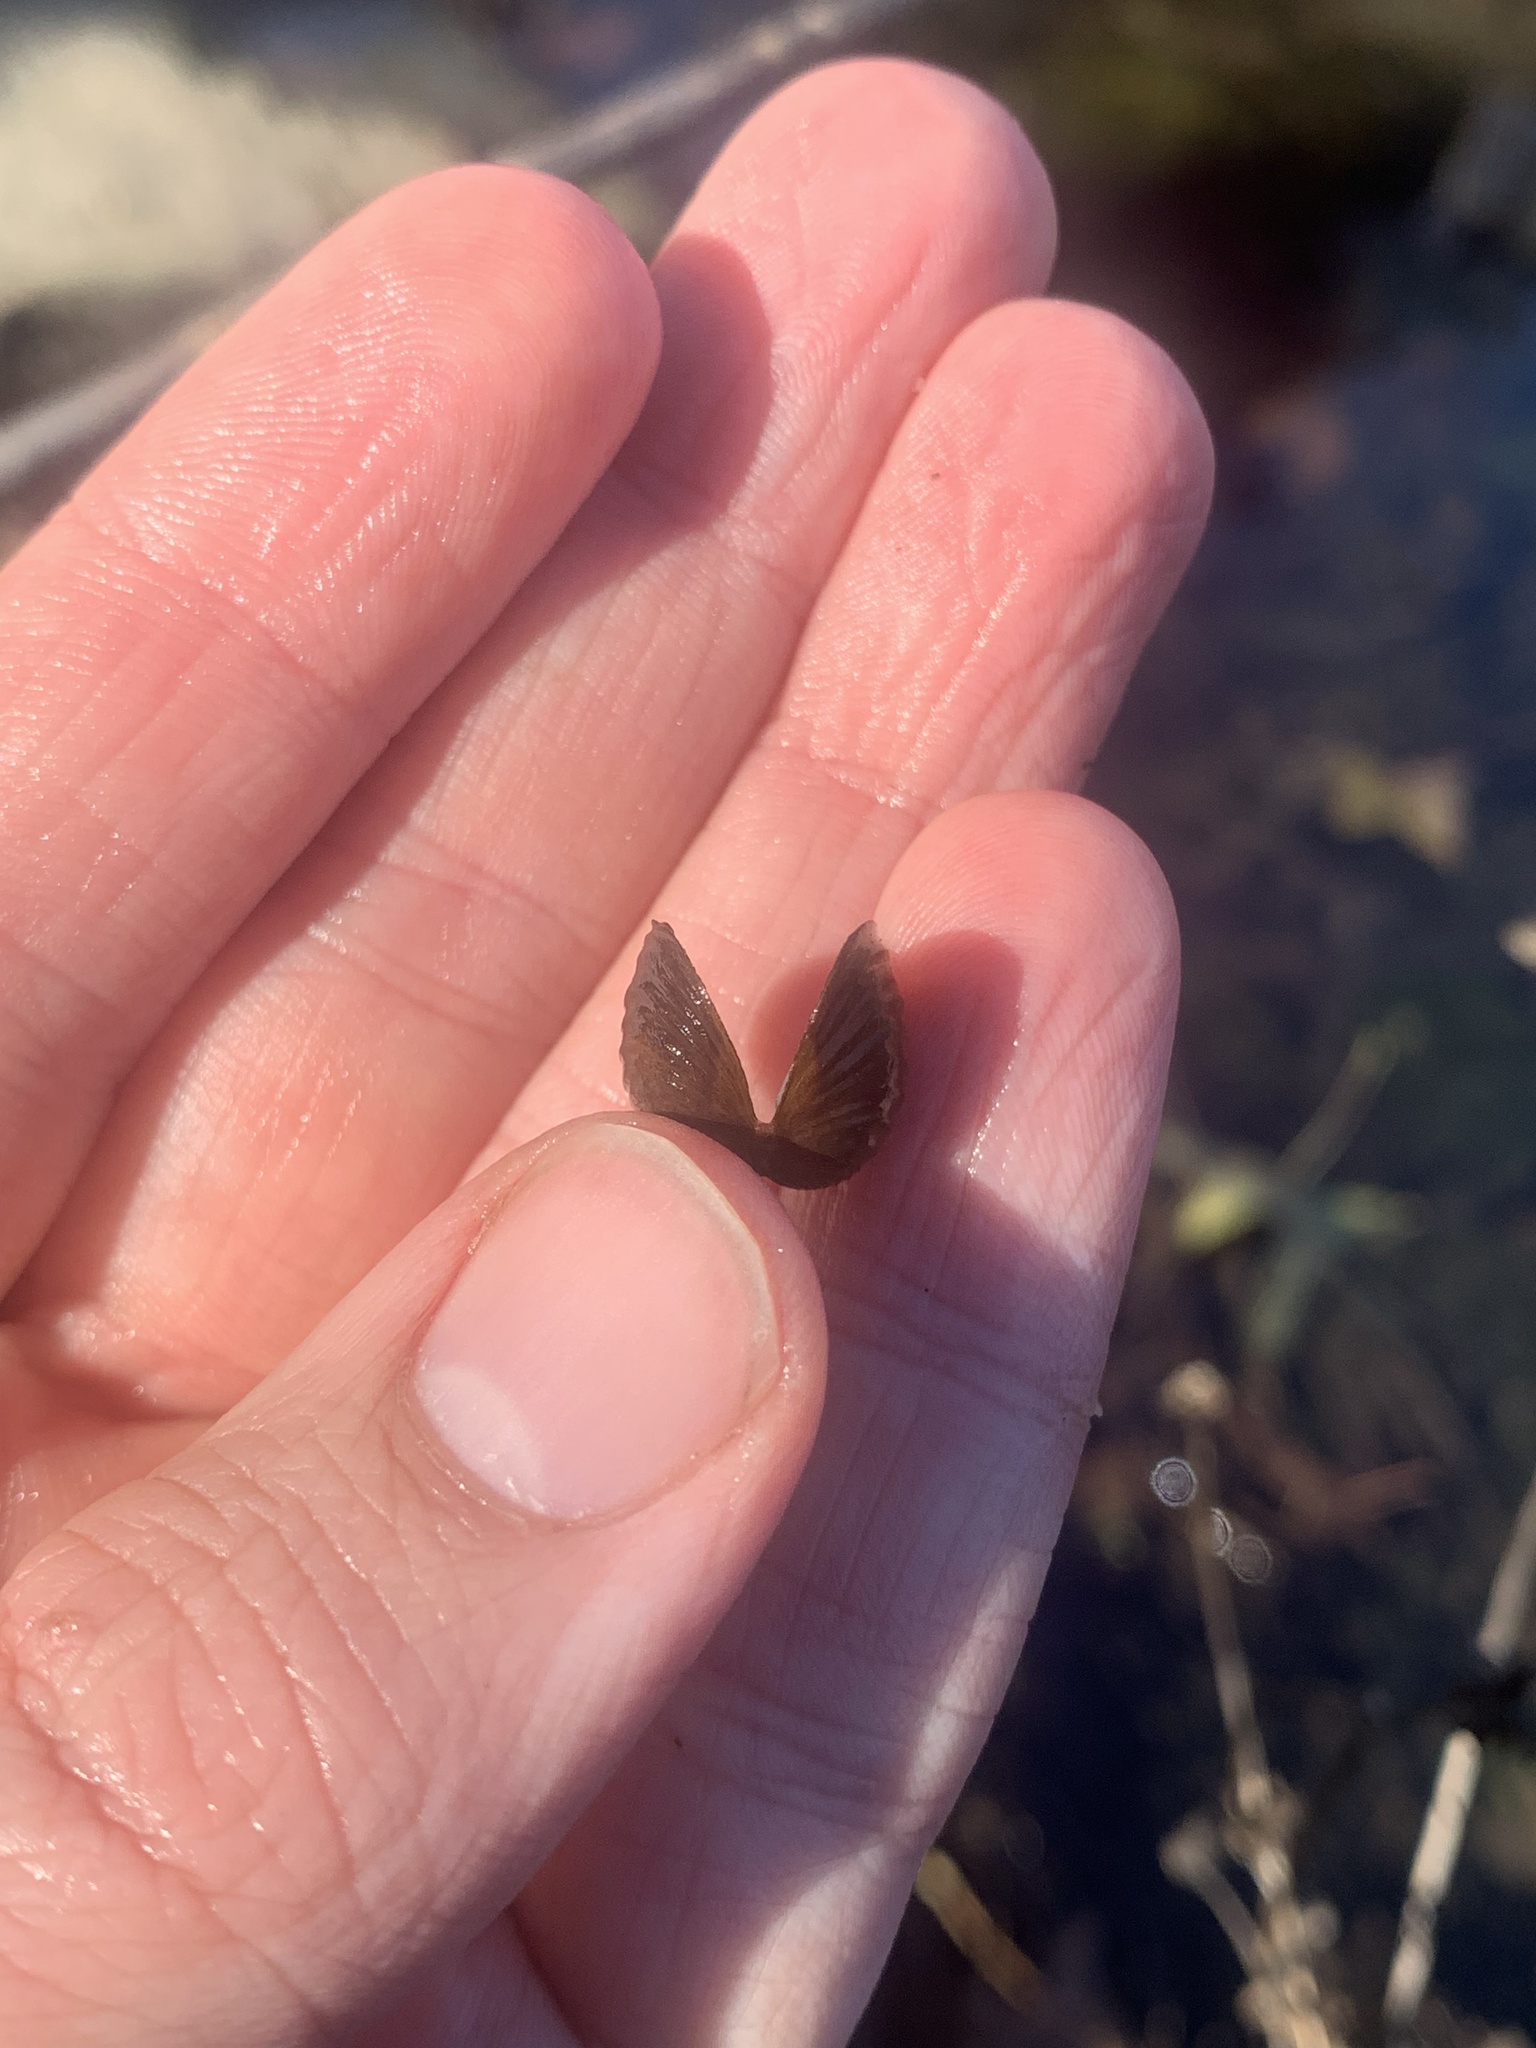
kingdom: Animalia
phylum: Mollusca
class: Bivalvia
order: Venerida
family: Cyrenidae
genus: Corbicula
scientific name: Corbicula fluminea
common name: Asian clam
